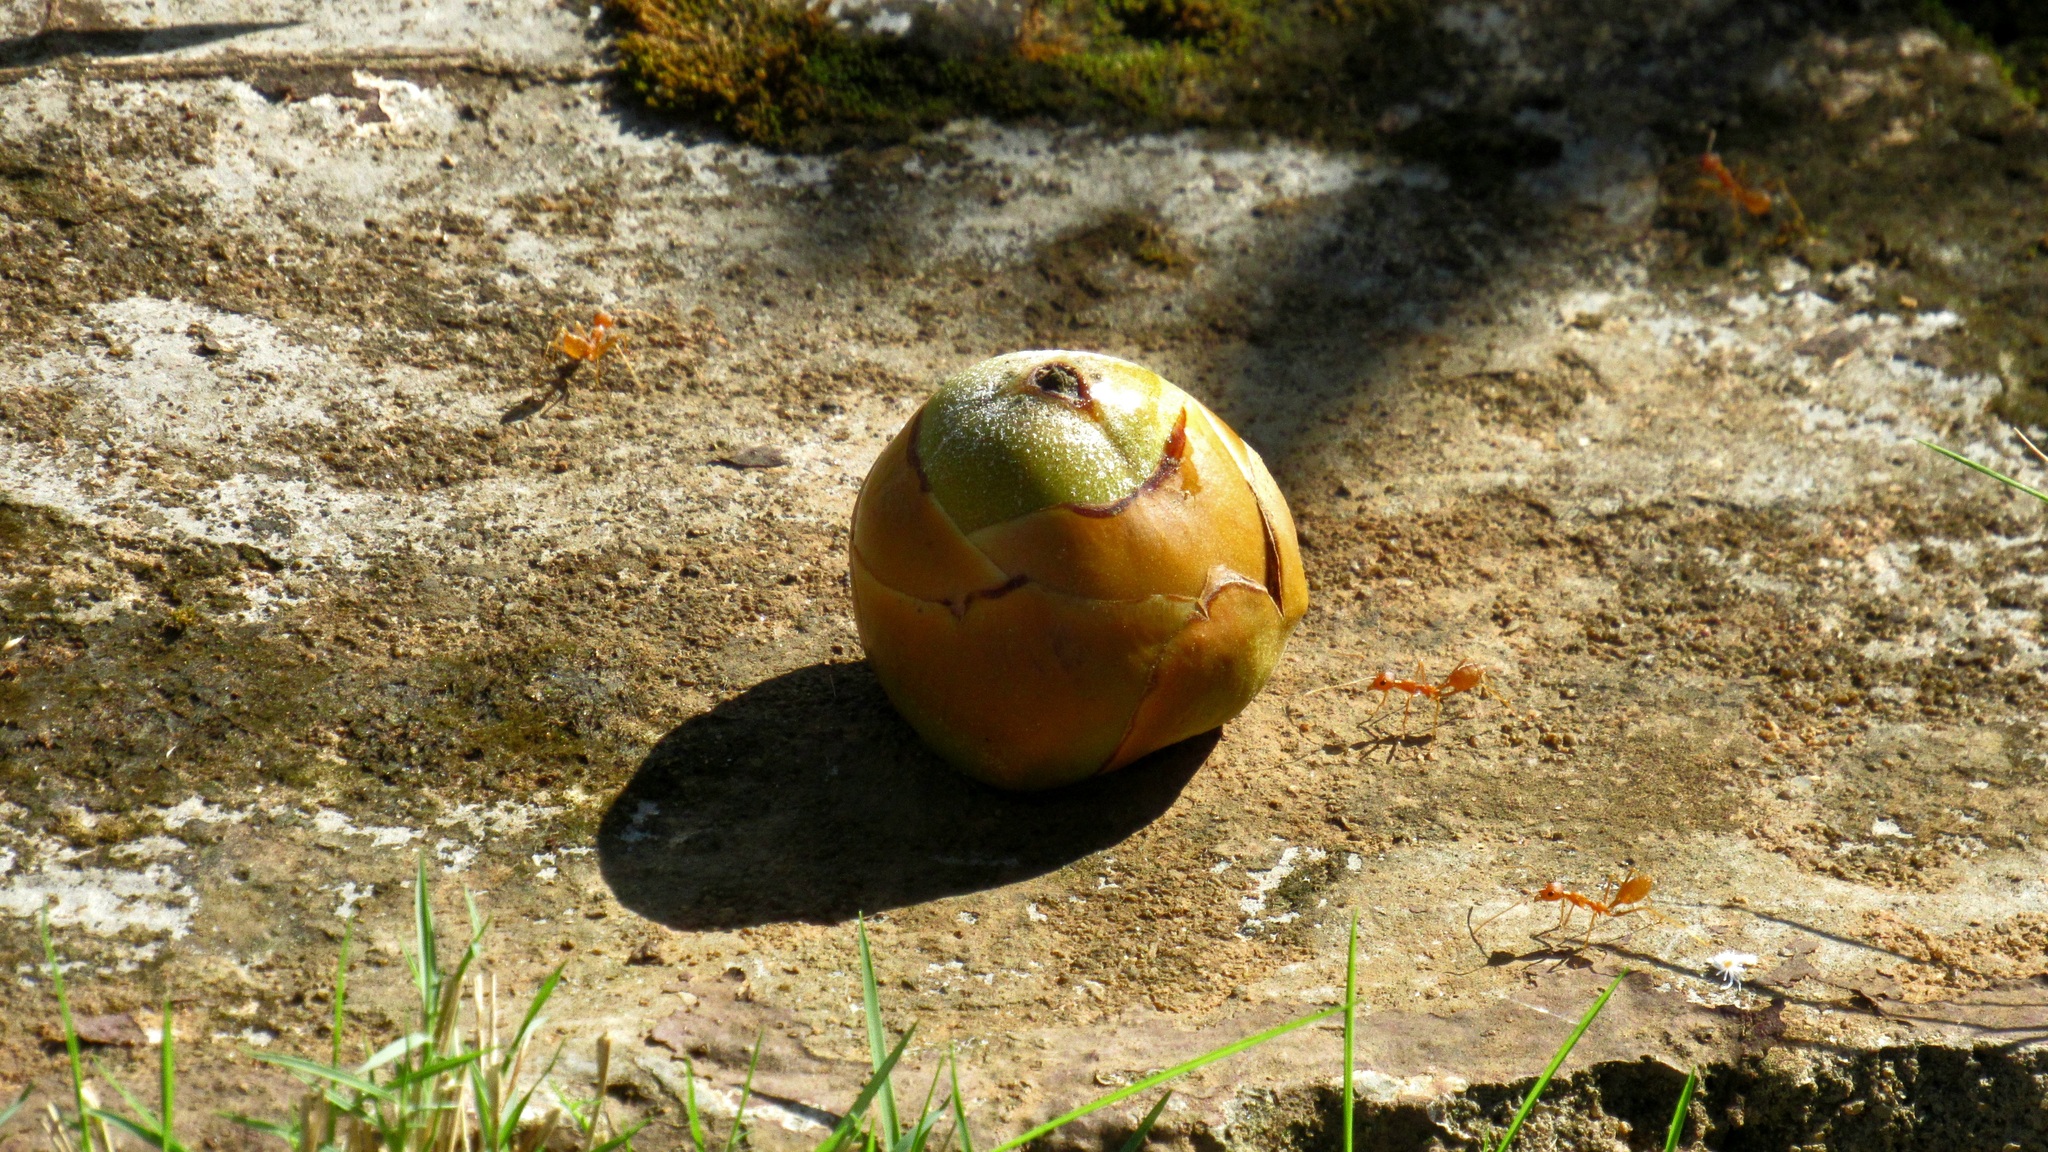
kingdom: Plantae
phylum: Tracheophyta
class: Liliopsida
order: Arecales
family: Arecaceae
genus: Cocos
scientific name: Cocos nucifera
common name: Coconut palm
